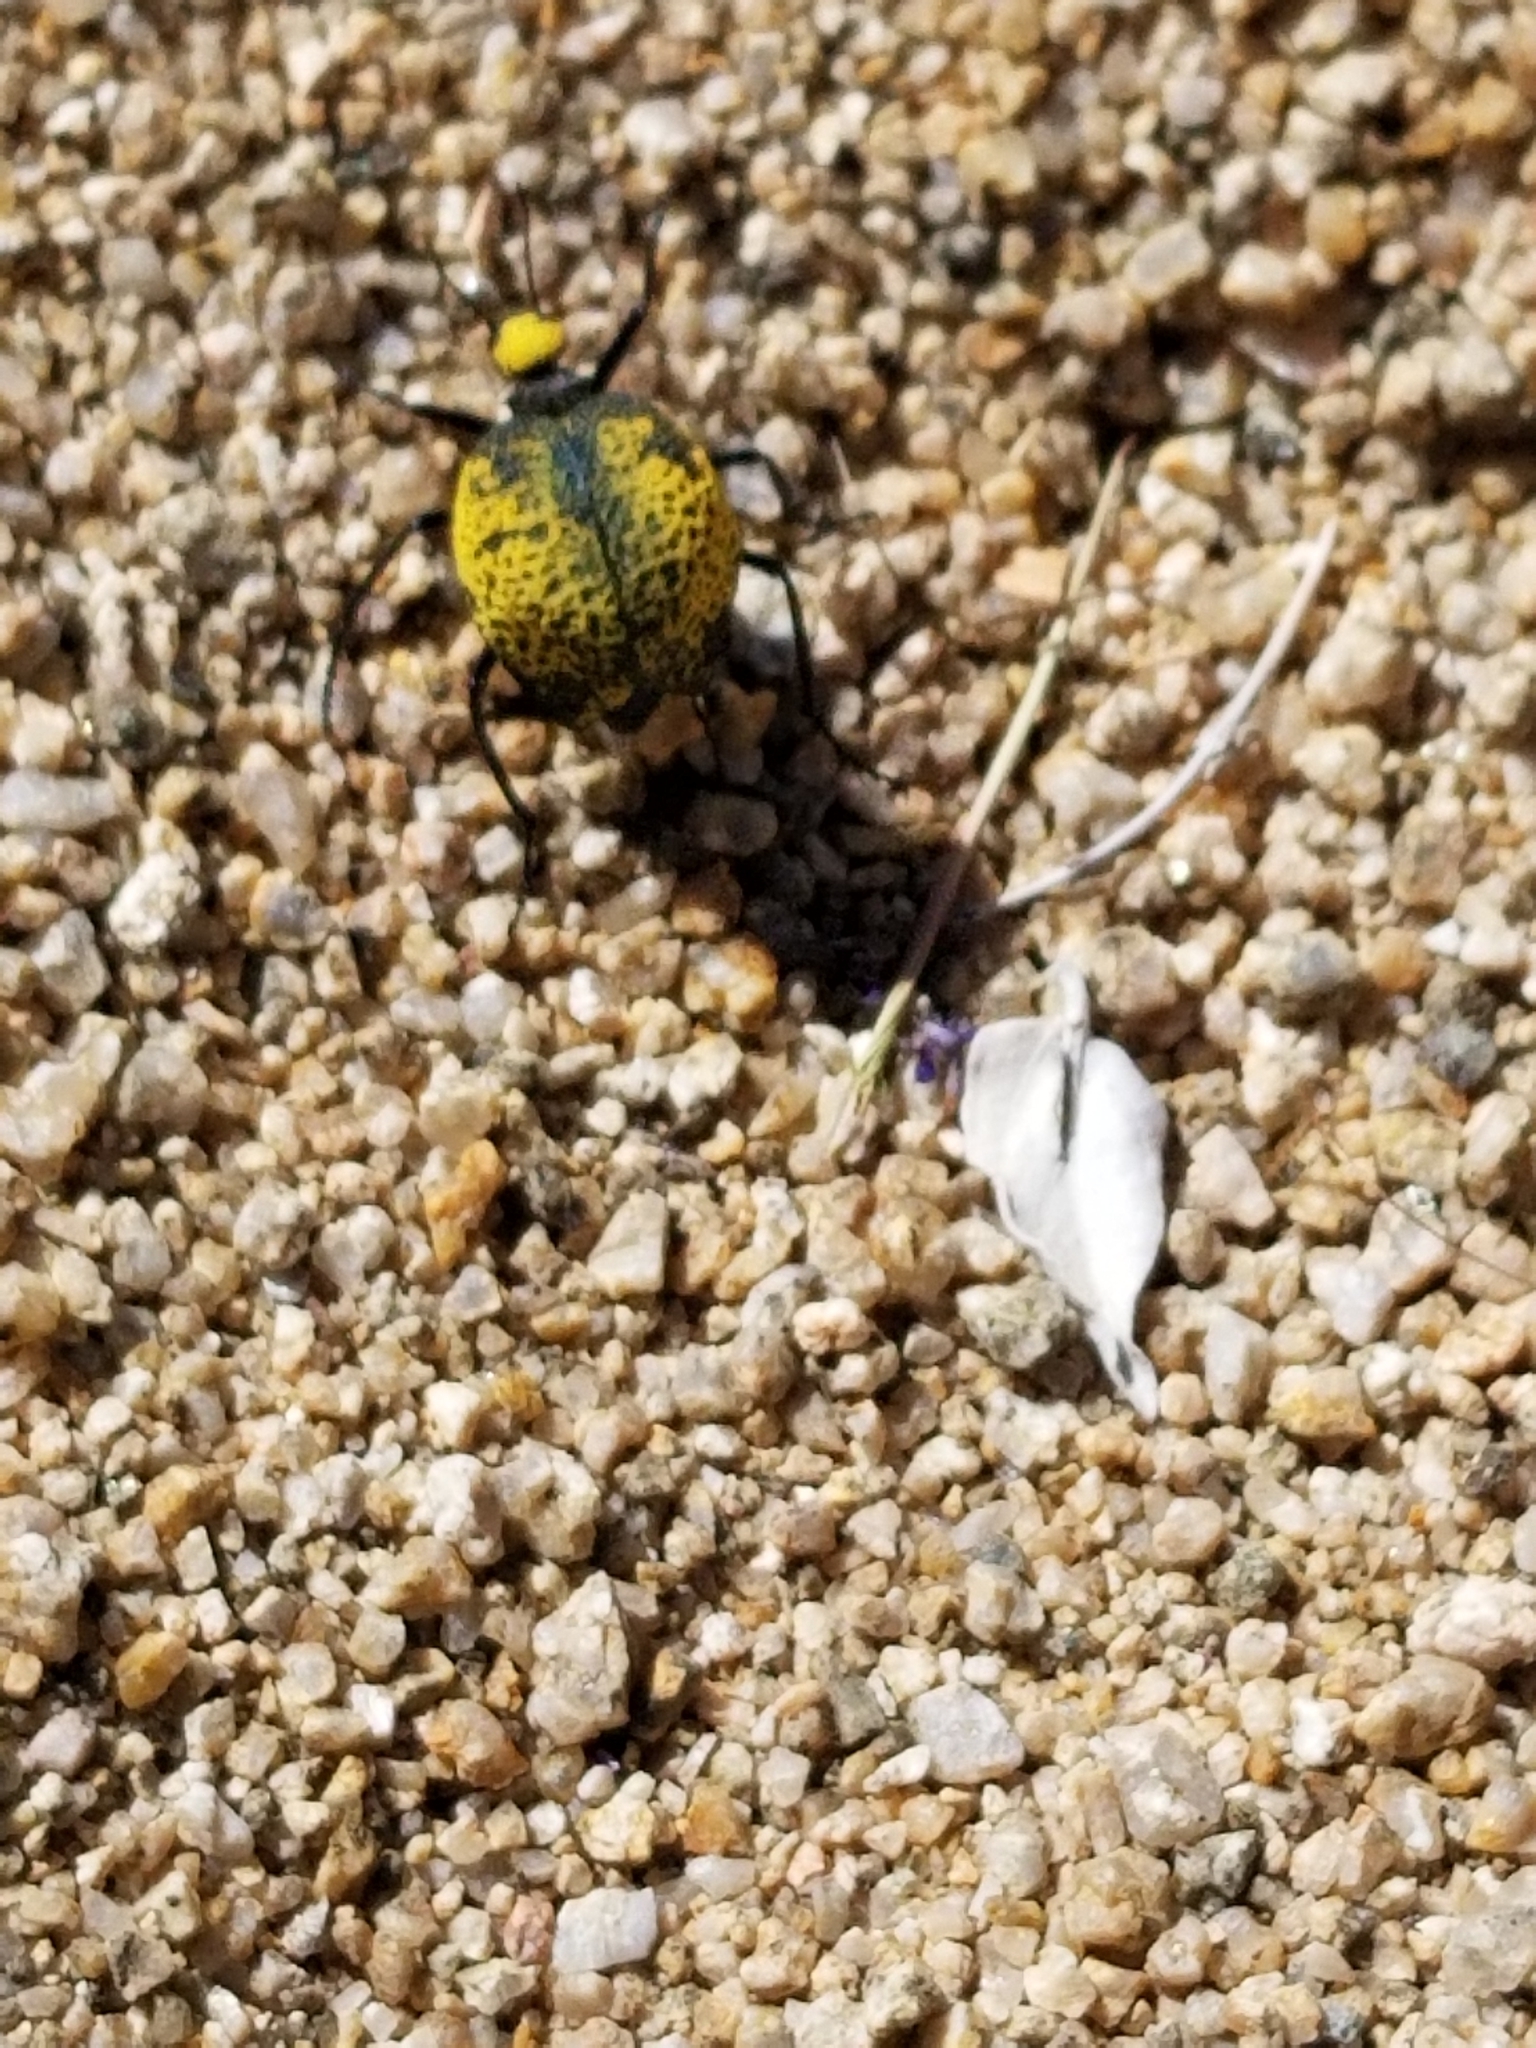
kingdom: Animalia
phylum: Arthropoda
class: Insecta
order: Coleoptera
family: Meloidae
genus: Cysteodemus
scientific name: Cysteodemus armatus
